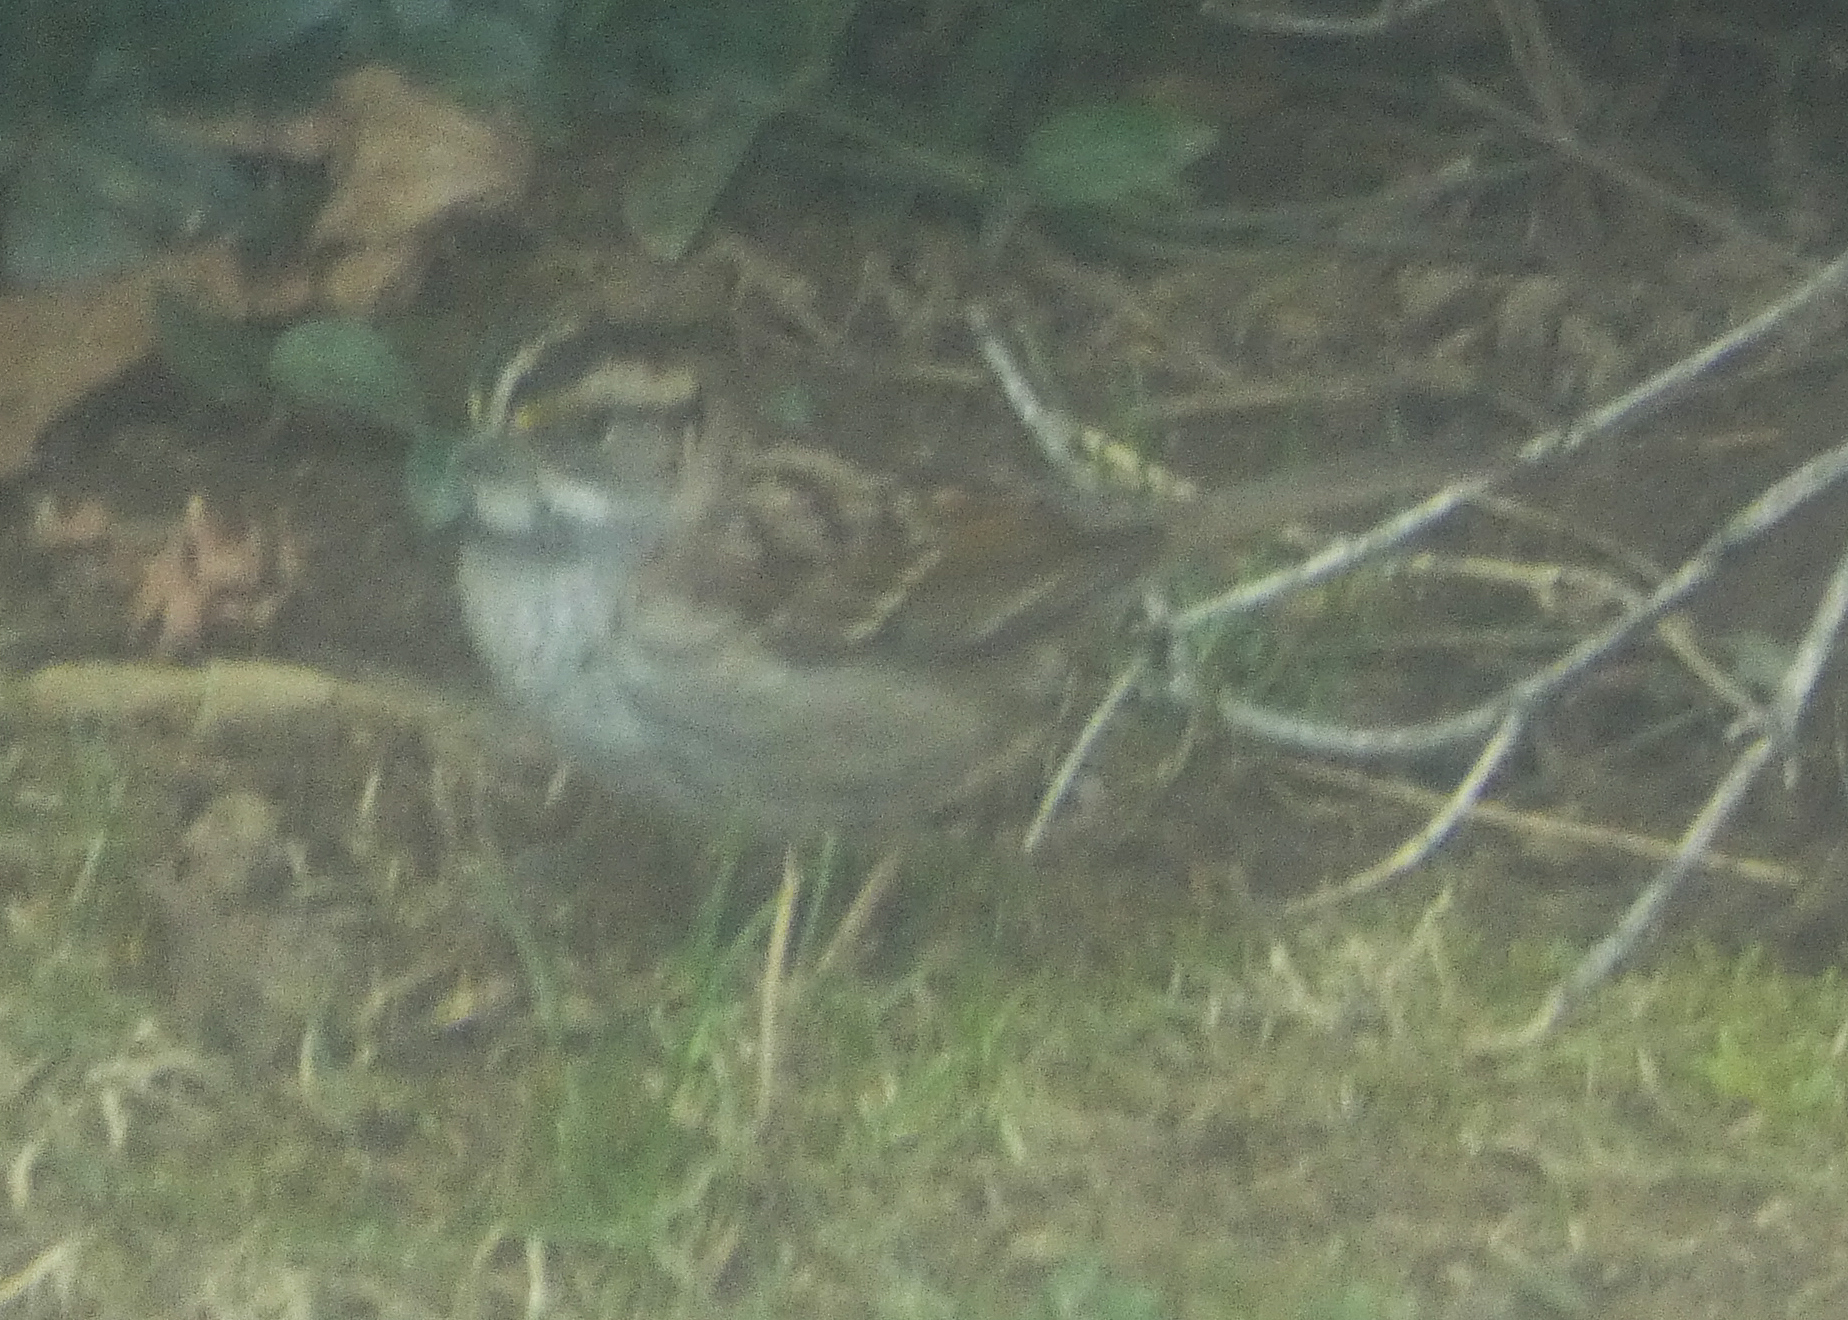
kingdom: Animalia
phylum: Chordata
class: Aves
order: Passeriformes
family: Passerellidae
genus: Zonotrichia
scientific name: Zonotrichia albicollis
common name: White-throated sparrow
